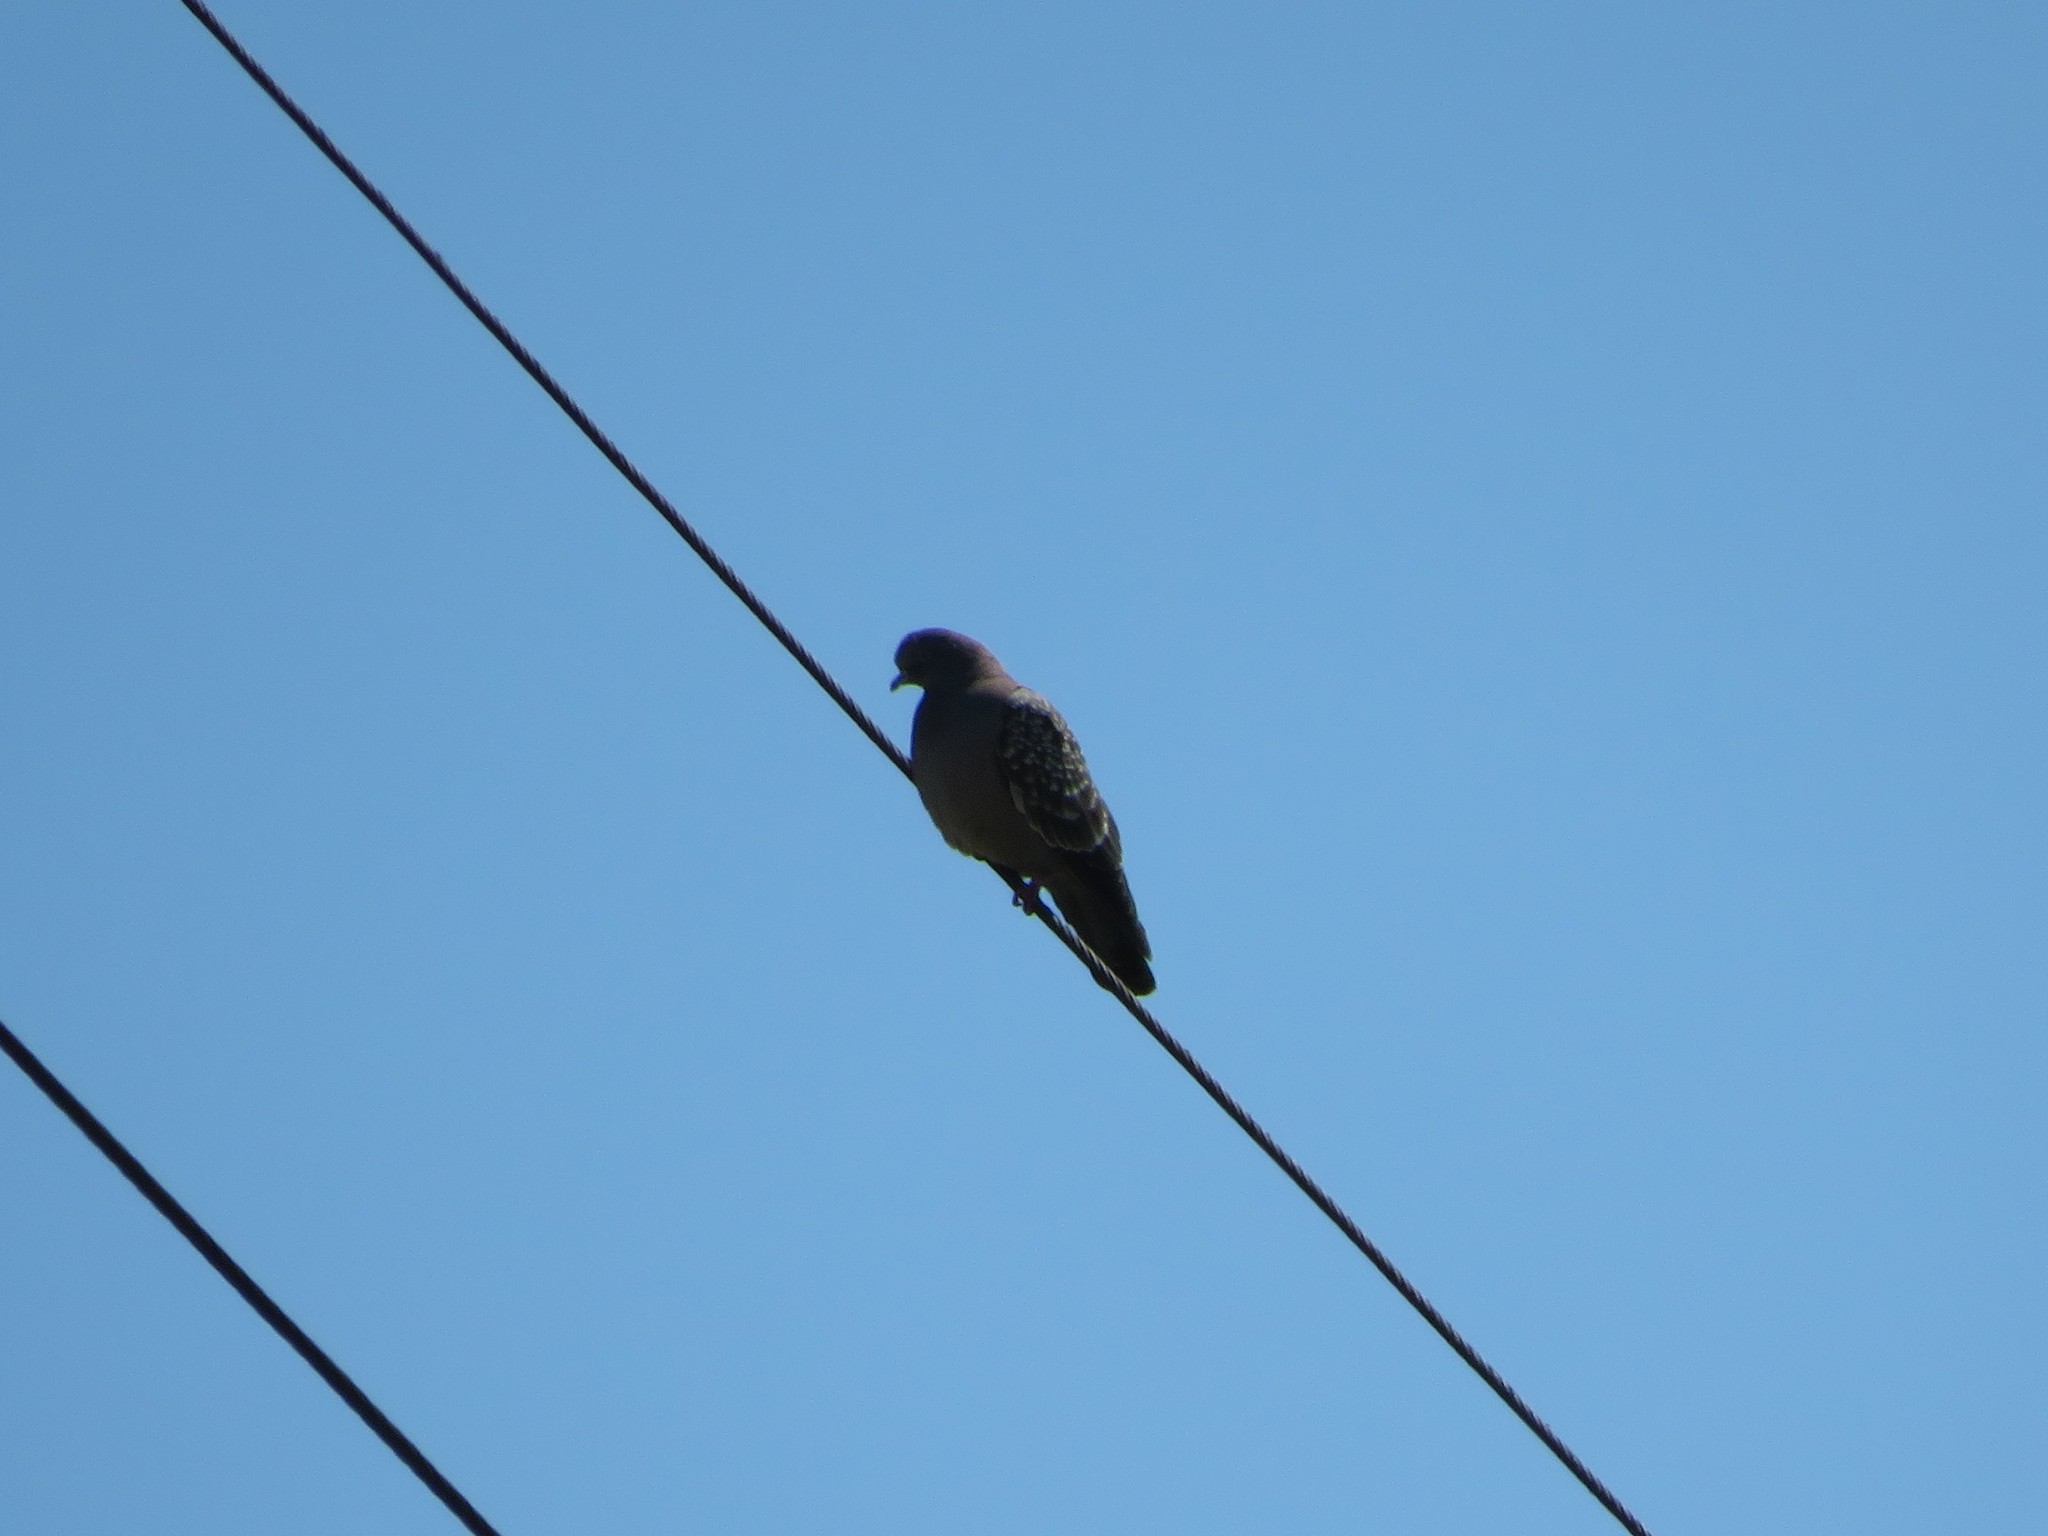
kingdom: Animalia
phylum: Chordata
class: Aves
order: Columbiformes
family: Columbidae
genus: Patagioenas
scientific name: Patagioenas maculosa
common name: Spot-winged pigeon
